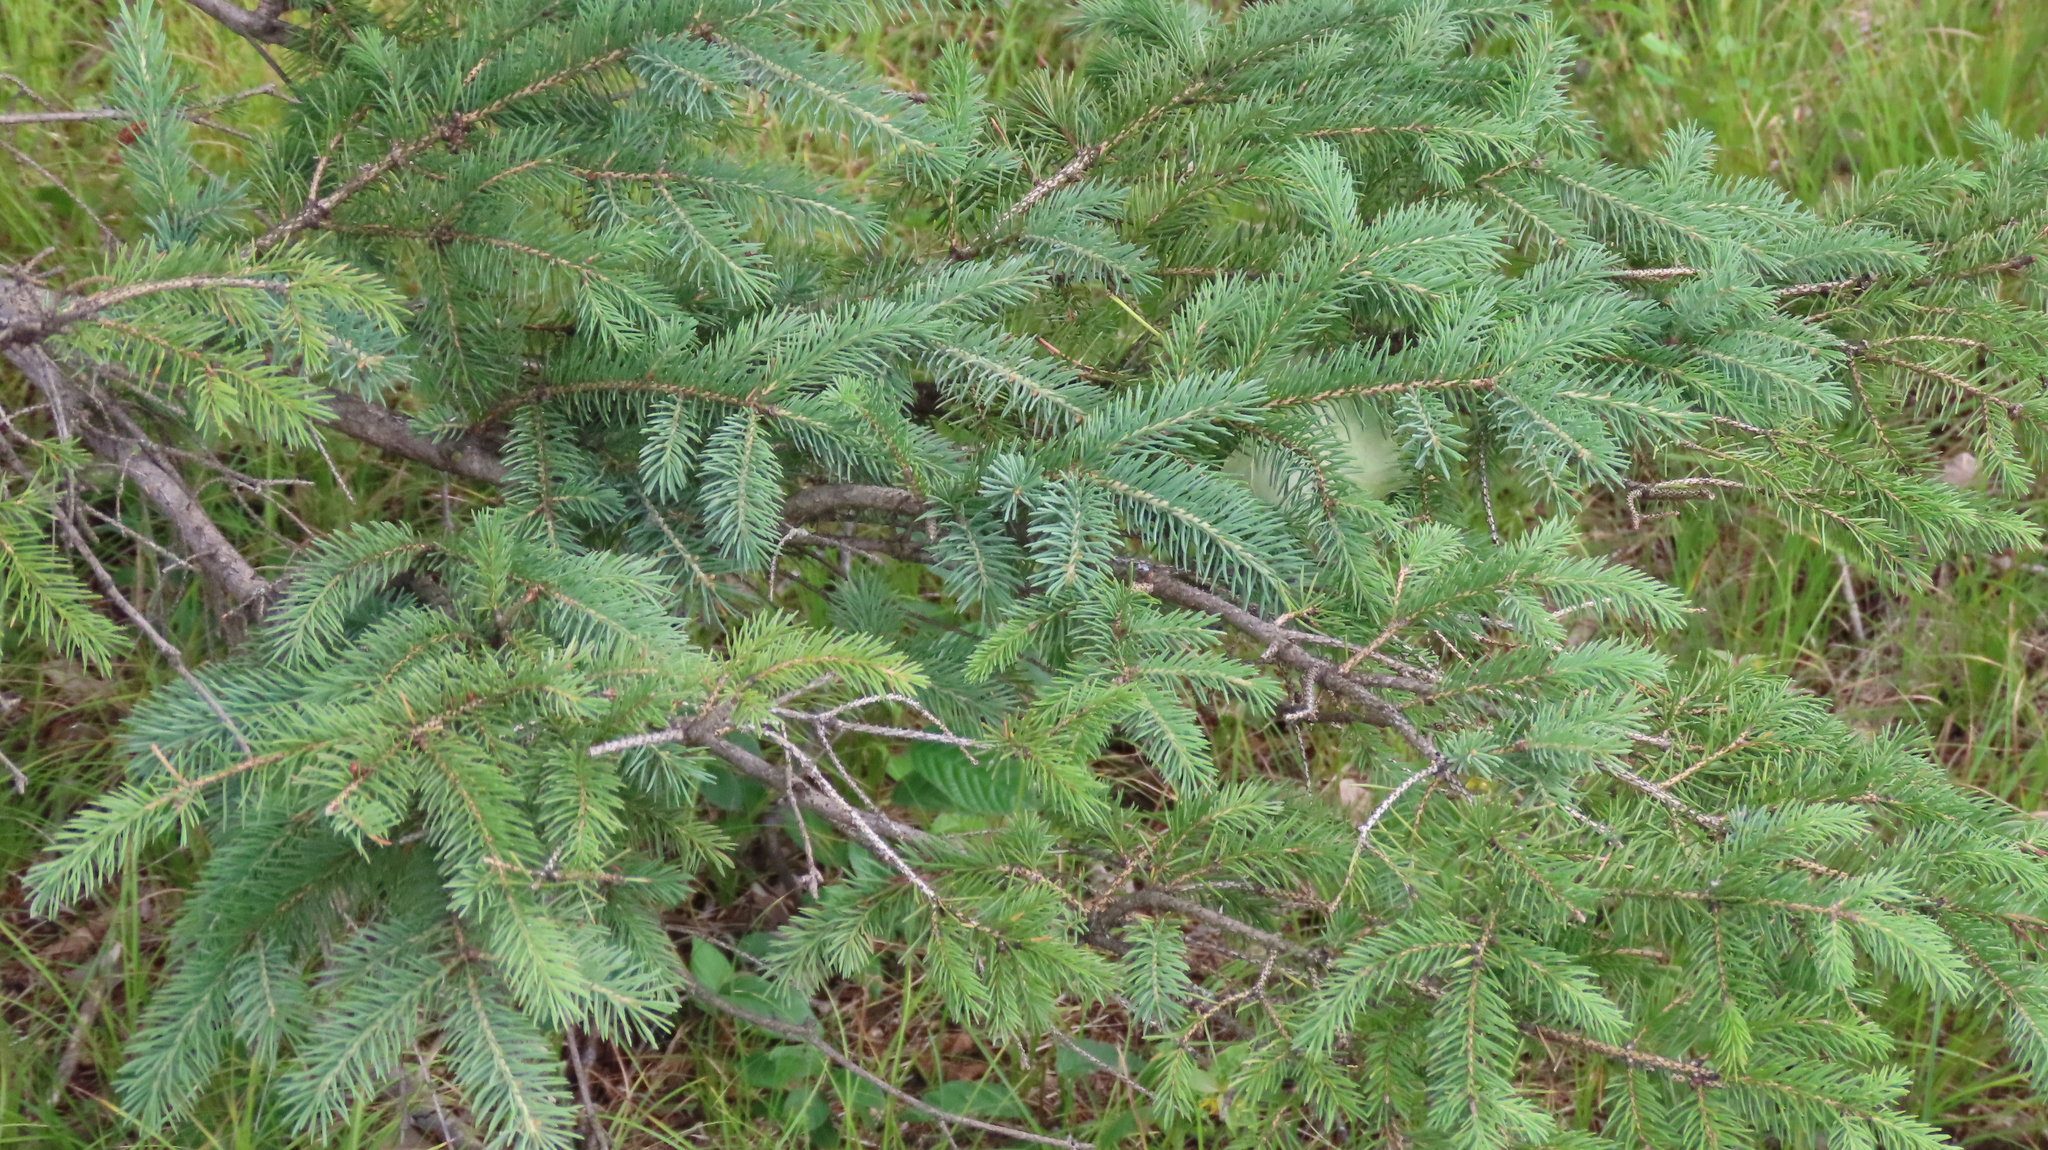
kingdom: Plantae
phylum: Tracheophyta
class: Pinopsida
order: Pinales
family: Pinaceae
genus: Picea
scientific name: Picea glauca
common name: White spruce
